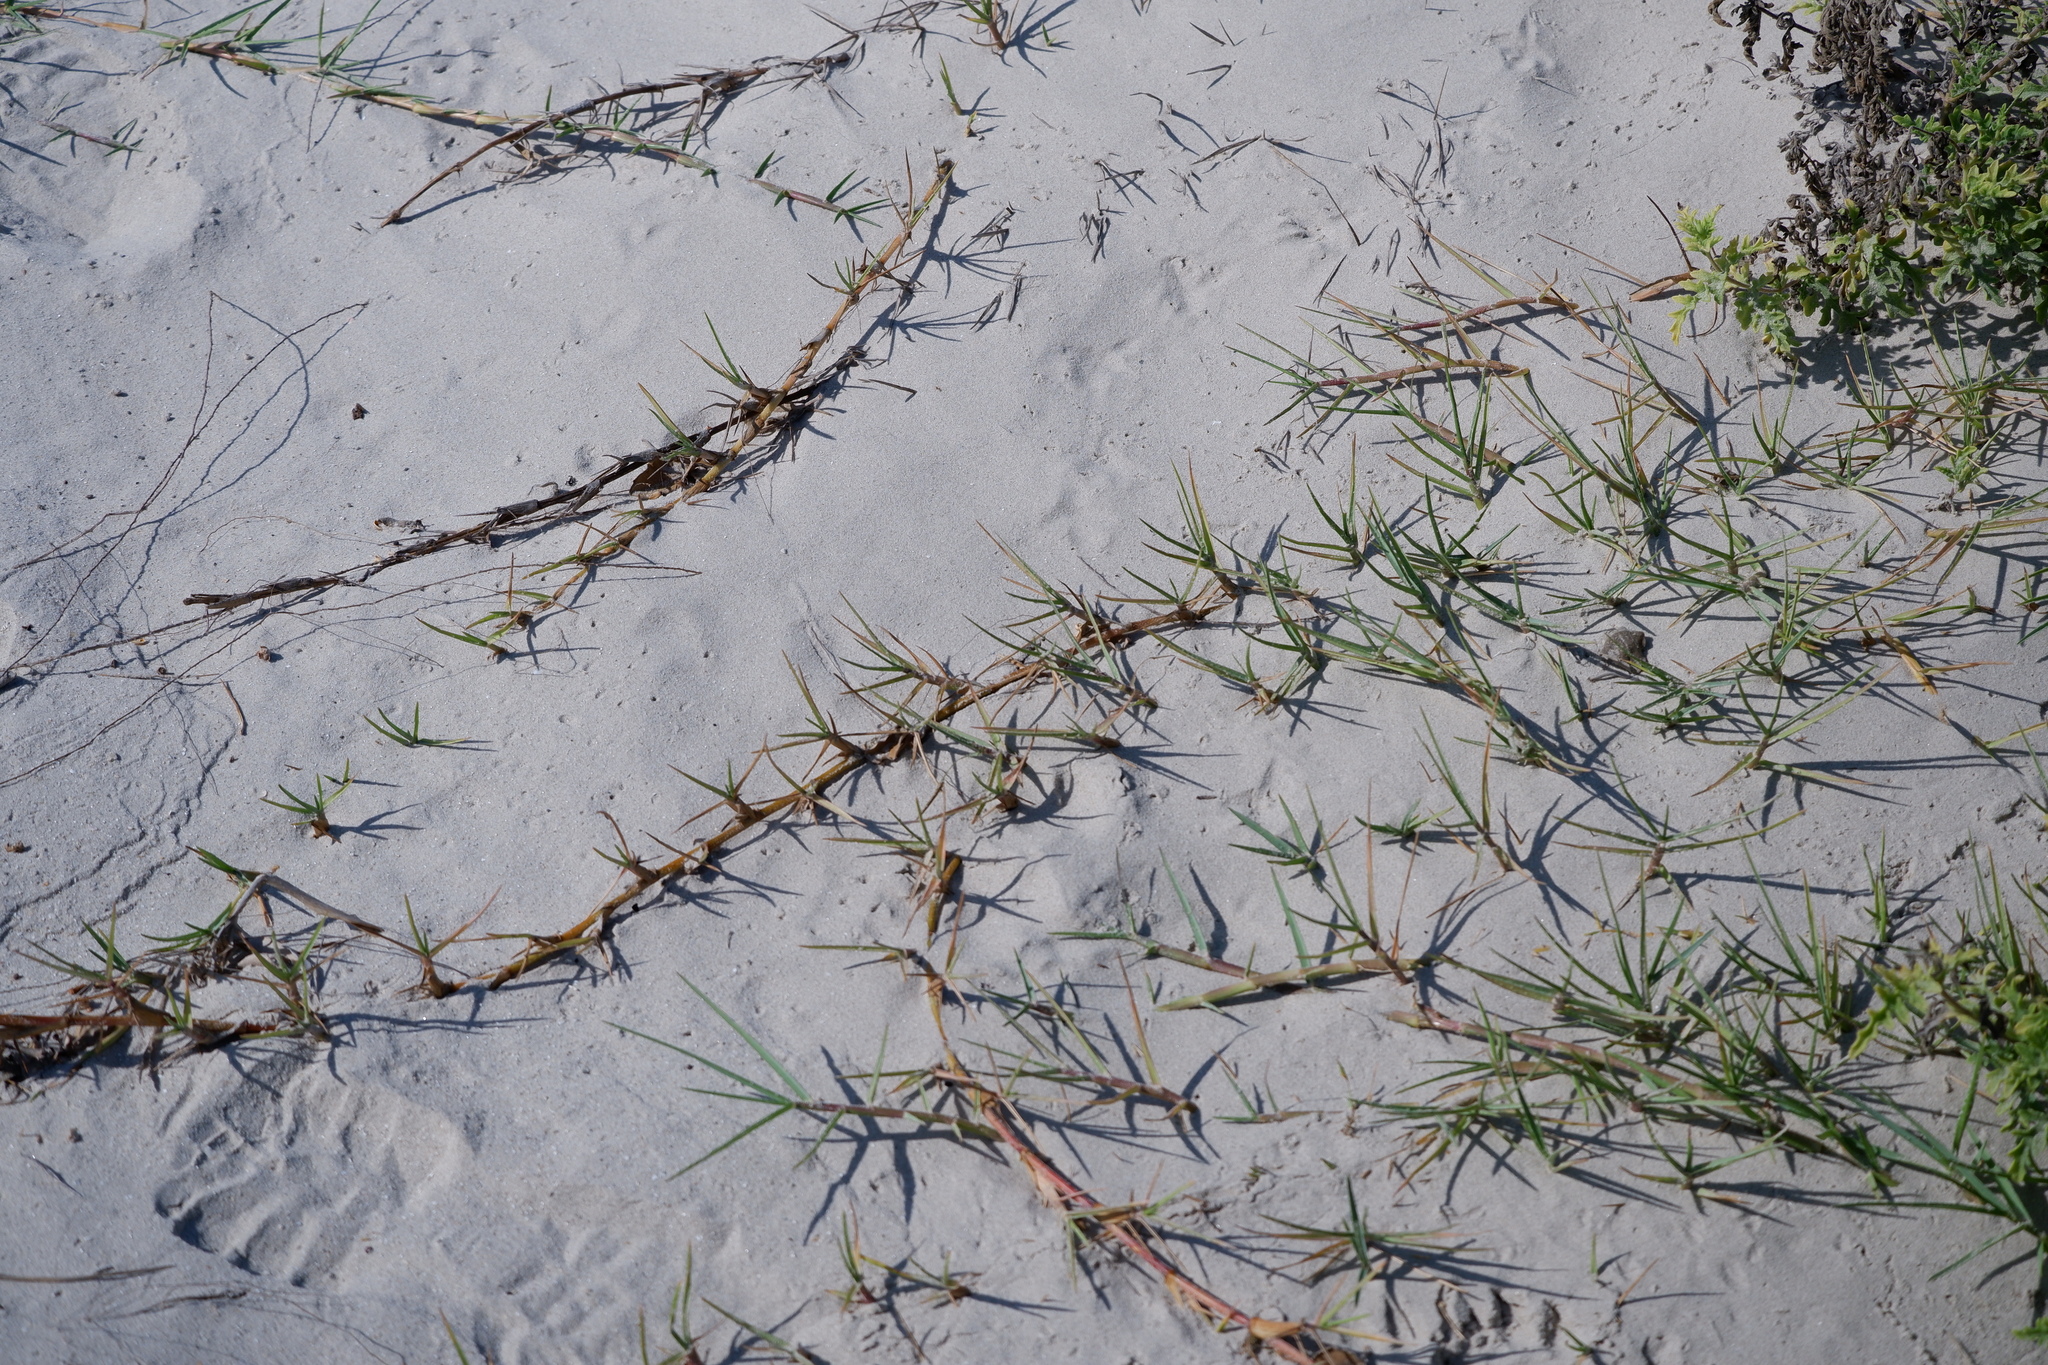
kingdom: Plantae
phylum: Tracheophyta
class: Liliopsida
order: Poales
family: Poaceae
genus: Sporobolus
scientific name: Sporobolus virginicus
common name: Beach dropseed
